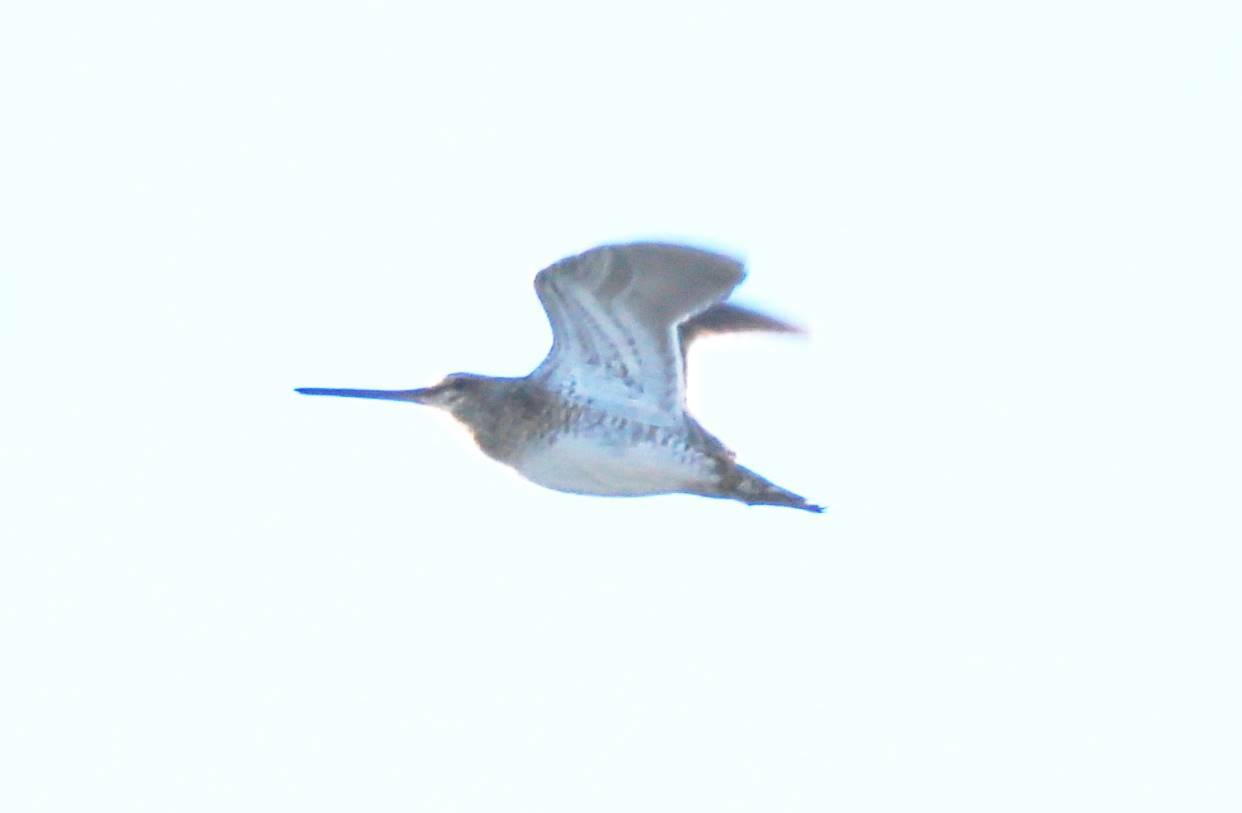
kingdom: Animalia
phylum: Chordata
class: Aves
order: Charadriiformes
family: Scolopacidae
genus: Gallinago
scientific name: Gallinago gallinago
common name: Common snipe
